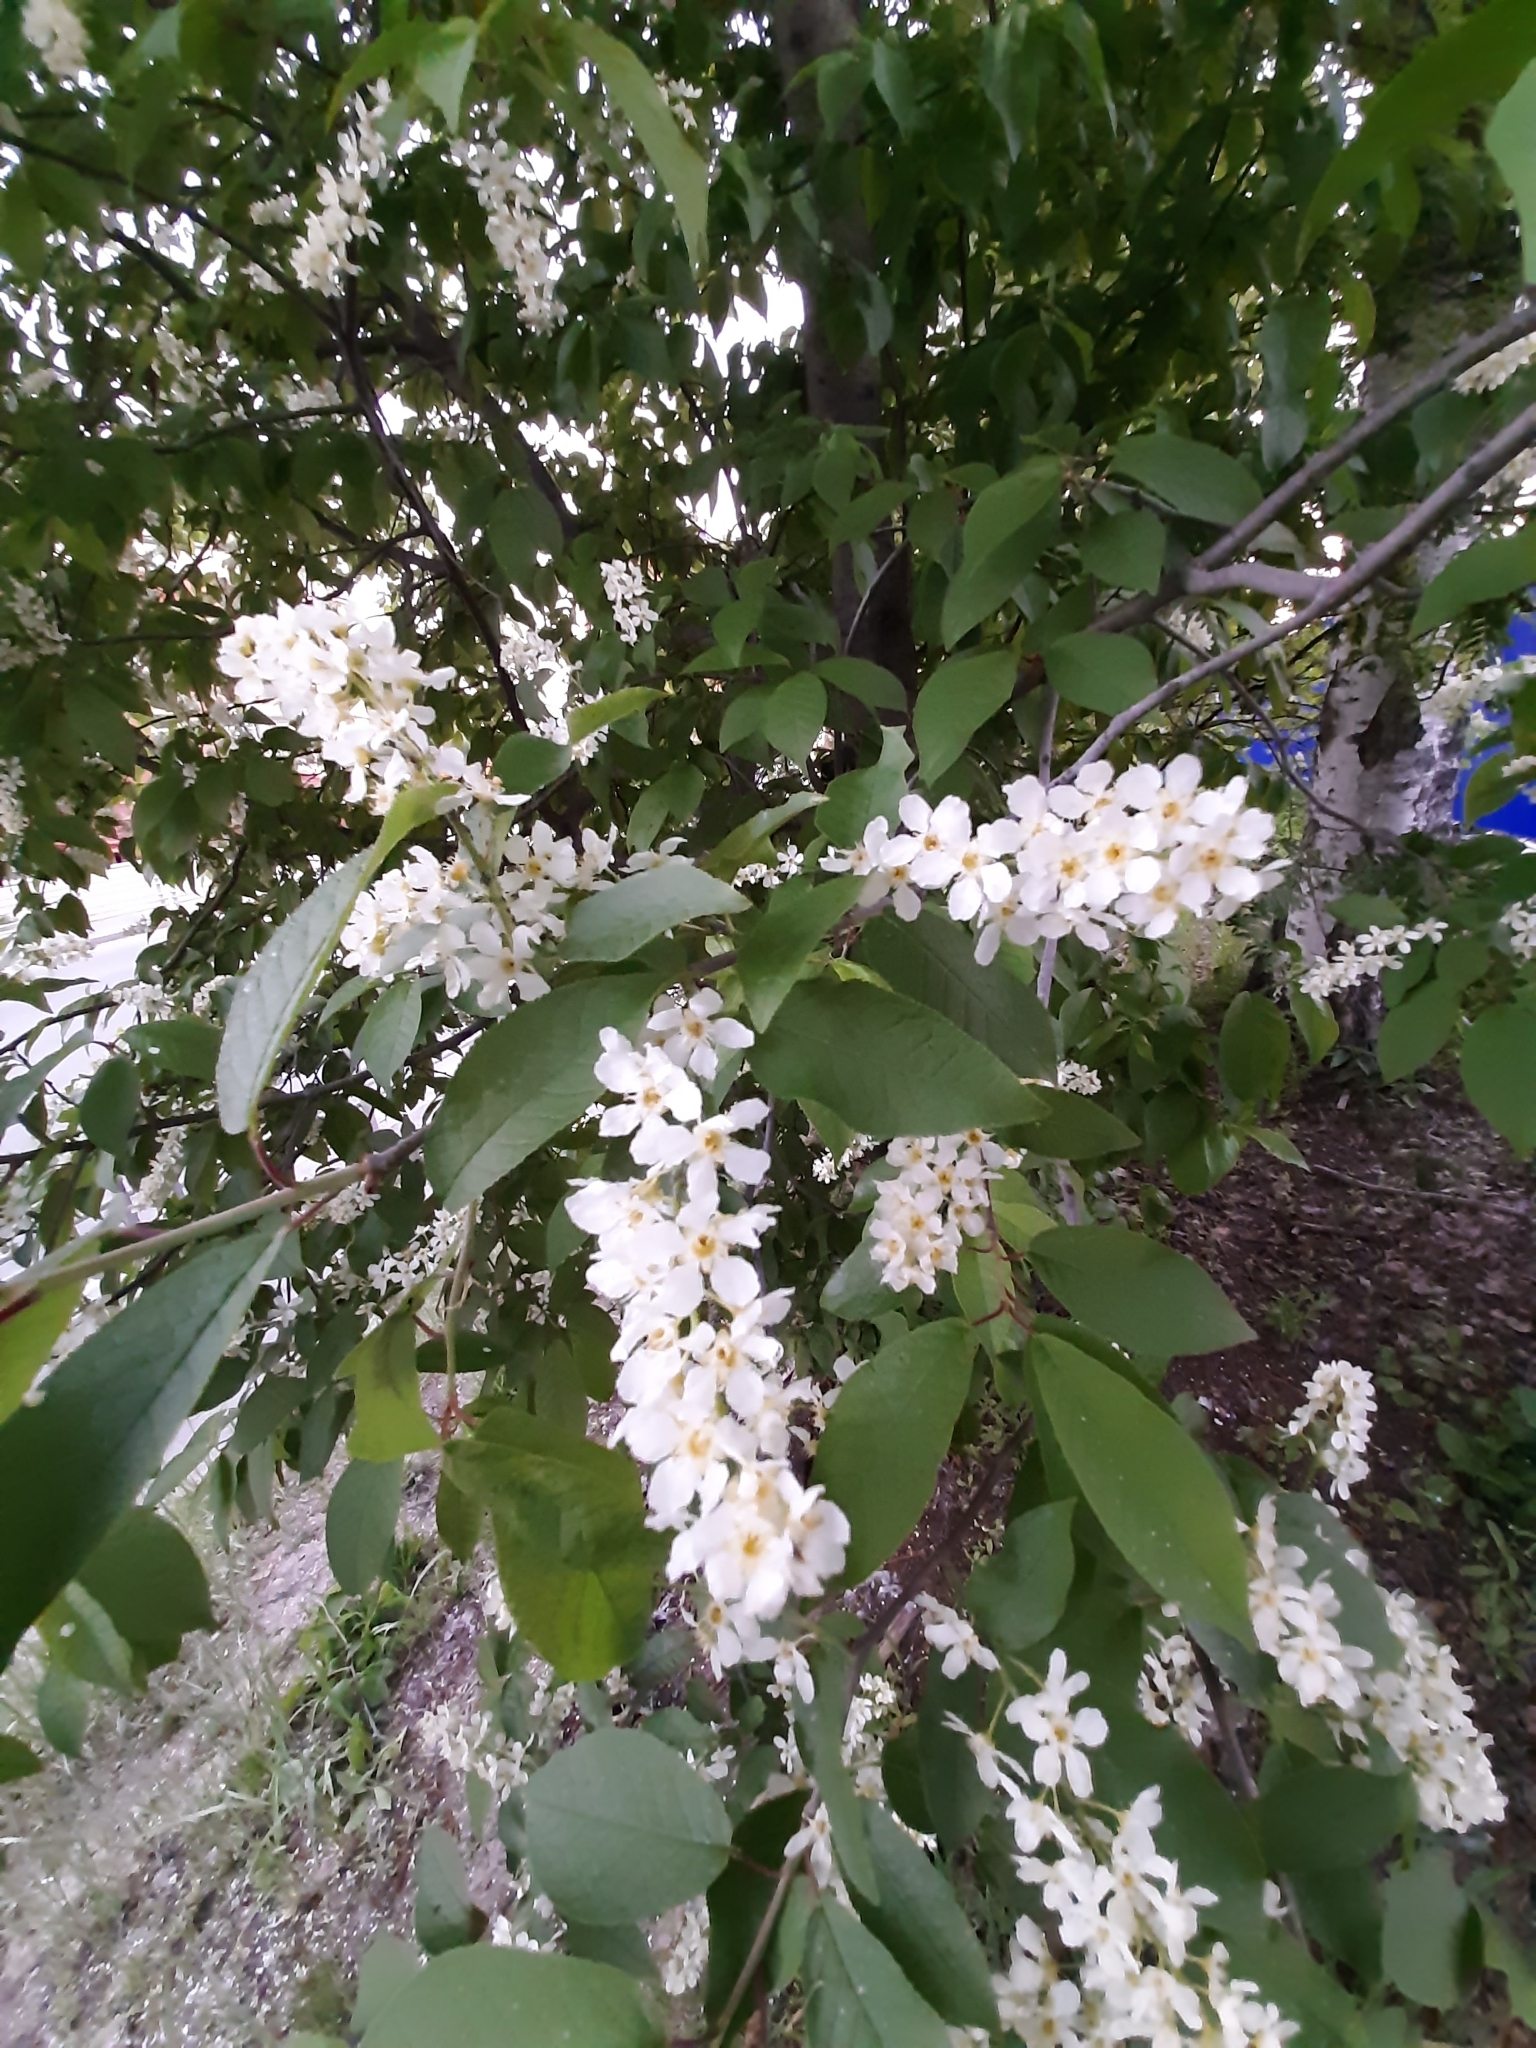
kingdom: Plantae
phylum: Tracheophyta
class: Magnoliopsida
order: Rosales
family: Rosaceae
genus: Prunus
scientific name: Prunus padus
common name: Bird cherry
